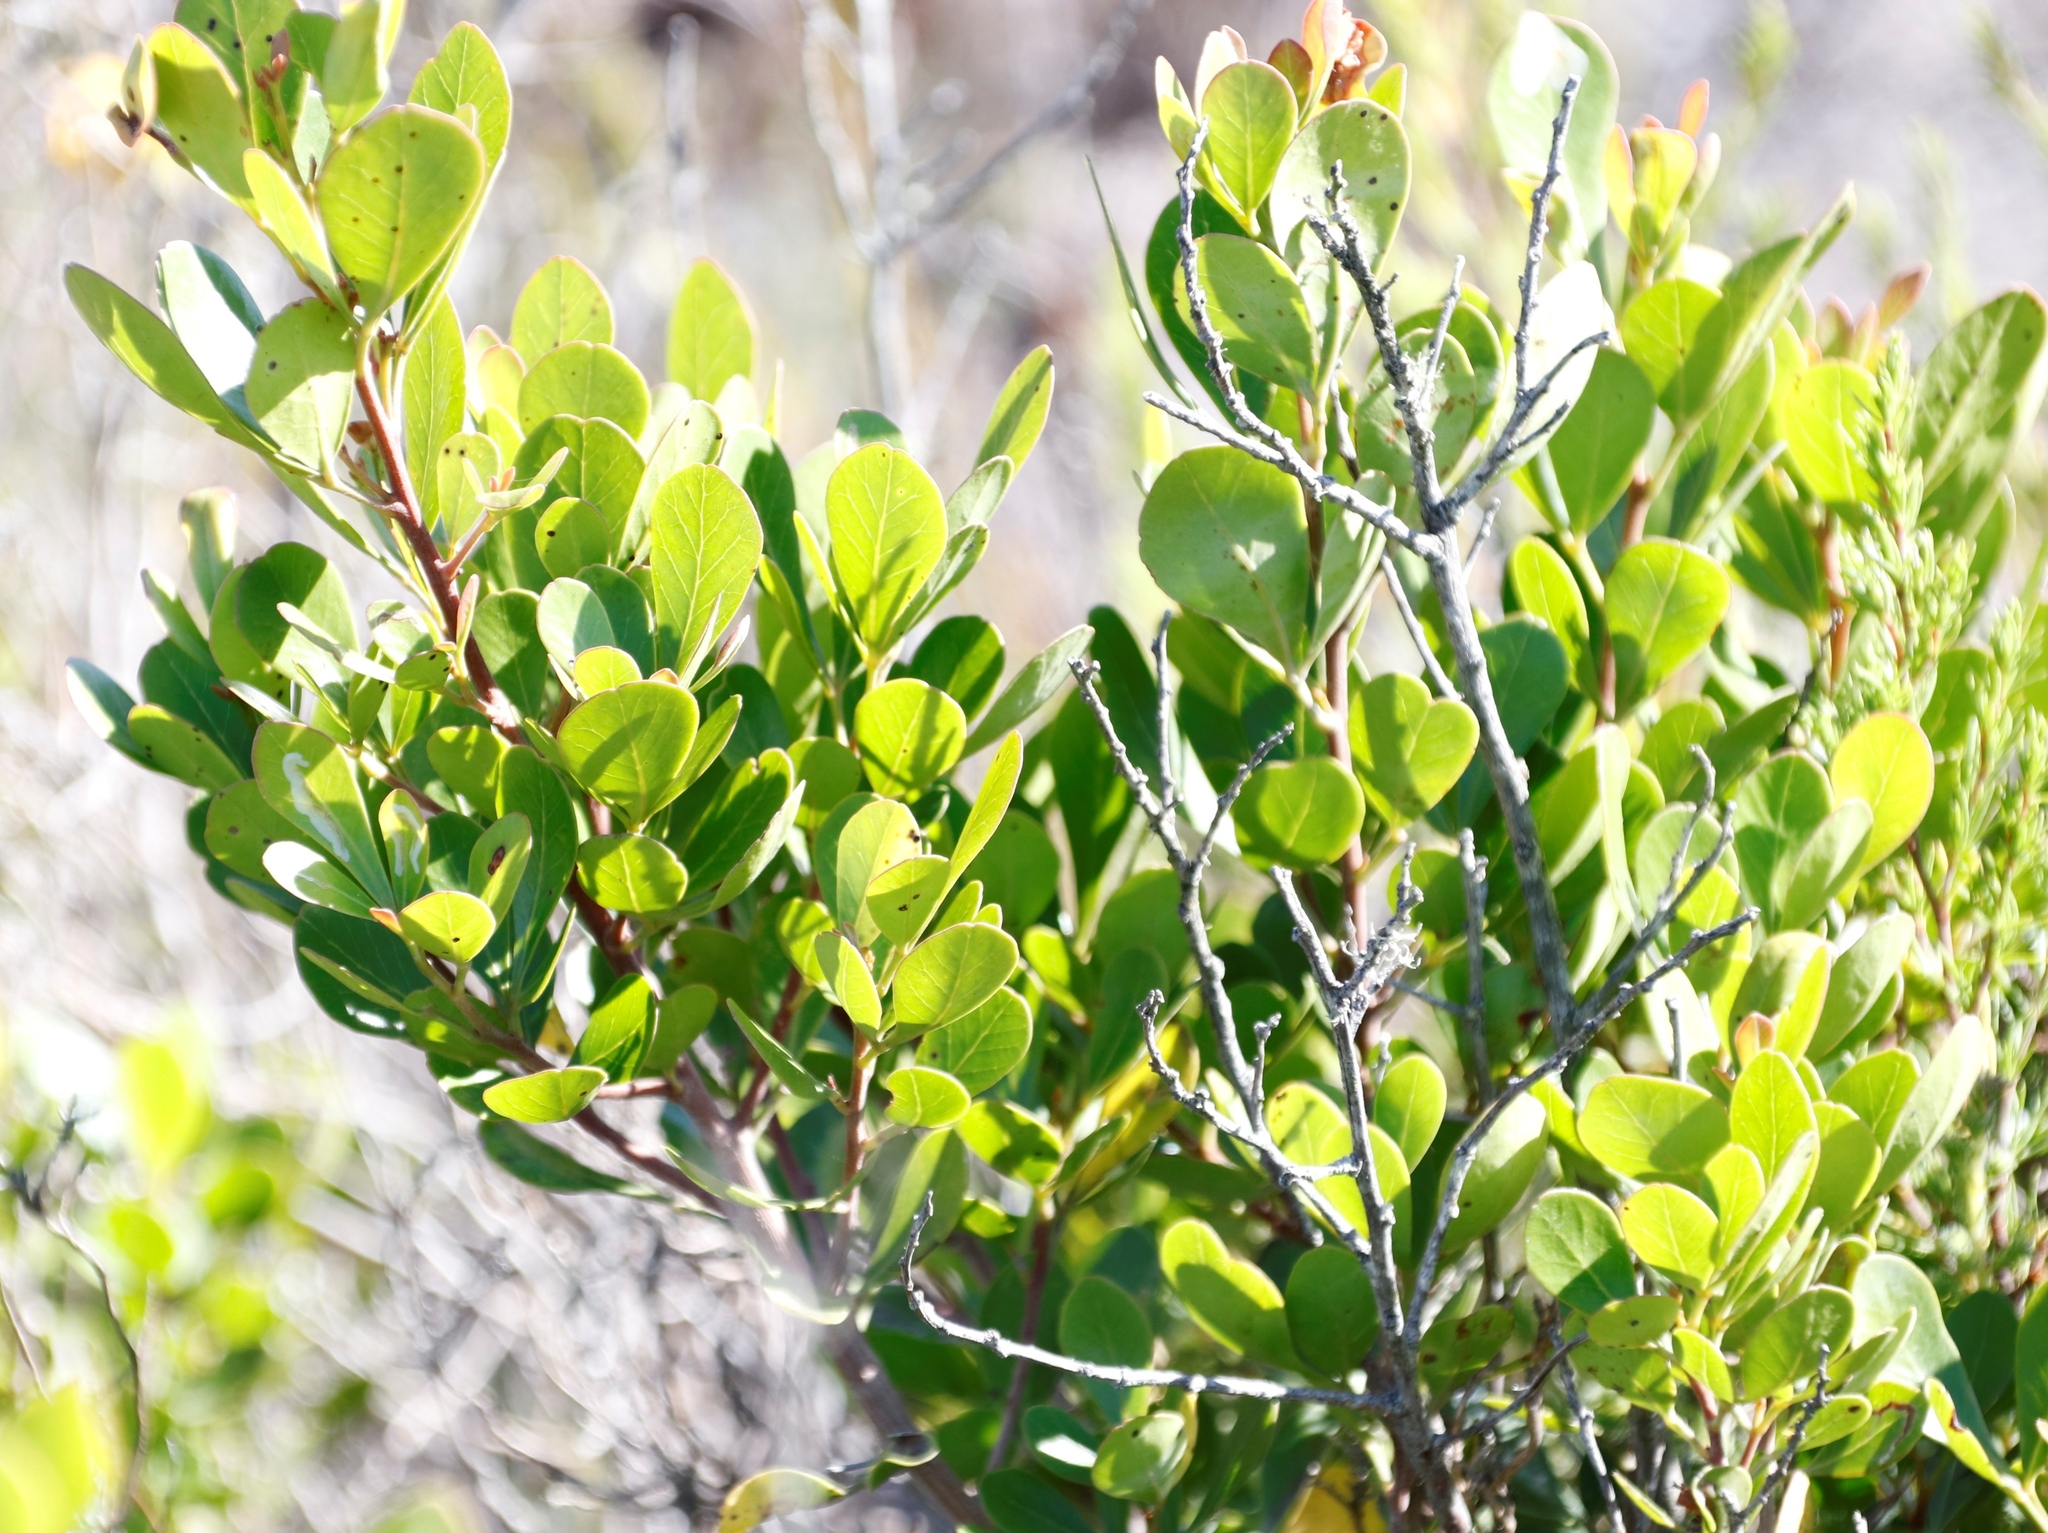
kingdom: Plantae
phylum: Tracheophyta
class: Magnoliopsida
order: Sapindales
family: Anacardiaceae
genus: Searsia
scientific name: Searsia lucida
